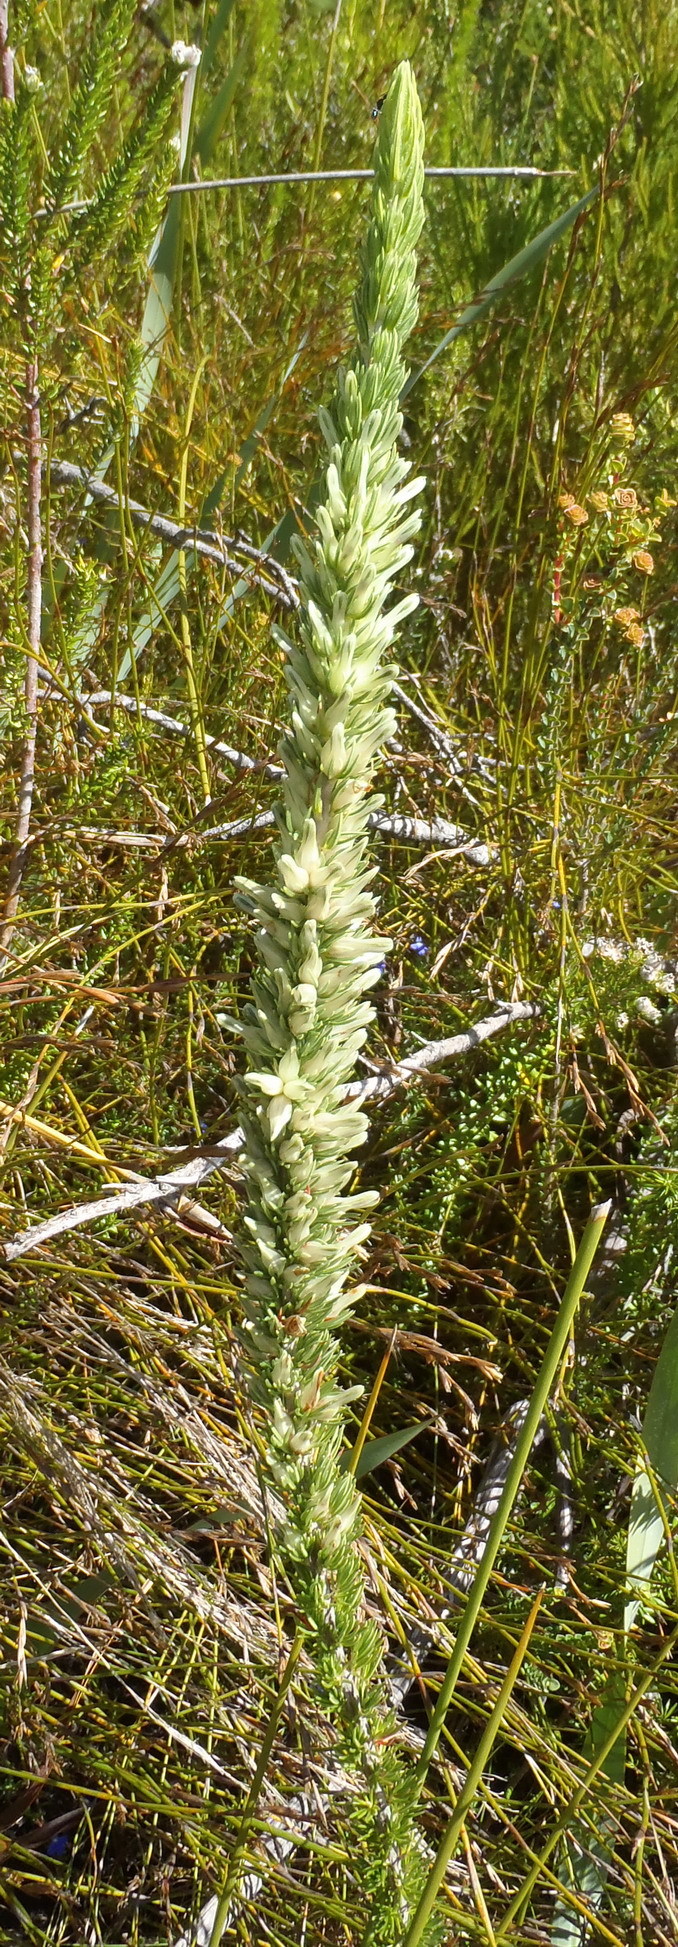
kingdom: Plantae
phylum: Tracheophyta
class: Magnoliopsida
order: Ericales
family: Ericaceae
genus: Erica
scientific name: Erica nabea
